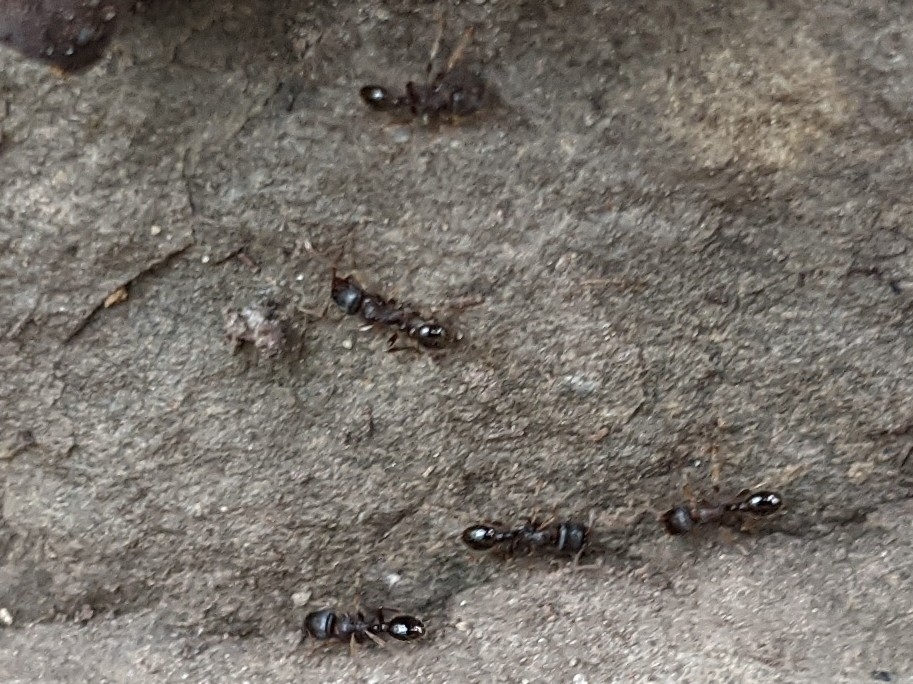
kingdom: Animalia
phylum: Arthropoda
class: Insecta
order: Hymenoptera
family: Formicidae
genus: Tetramorium
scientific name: Tetramorium immigrans
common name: Pavement ant
